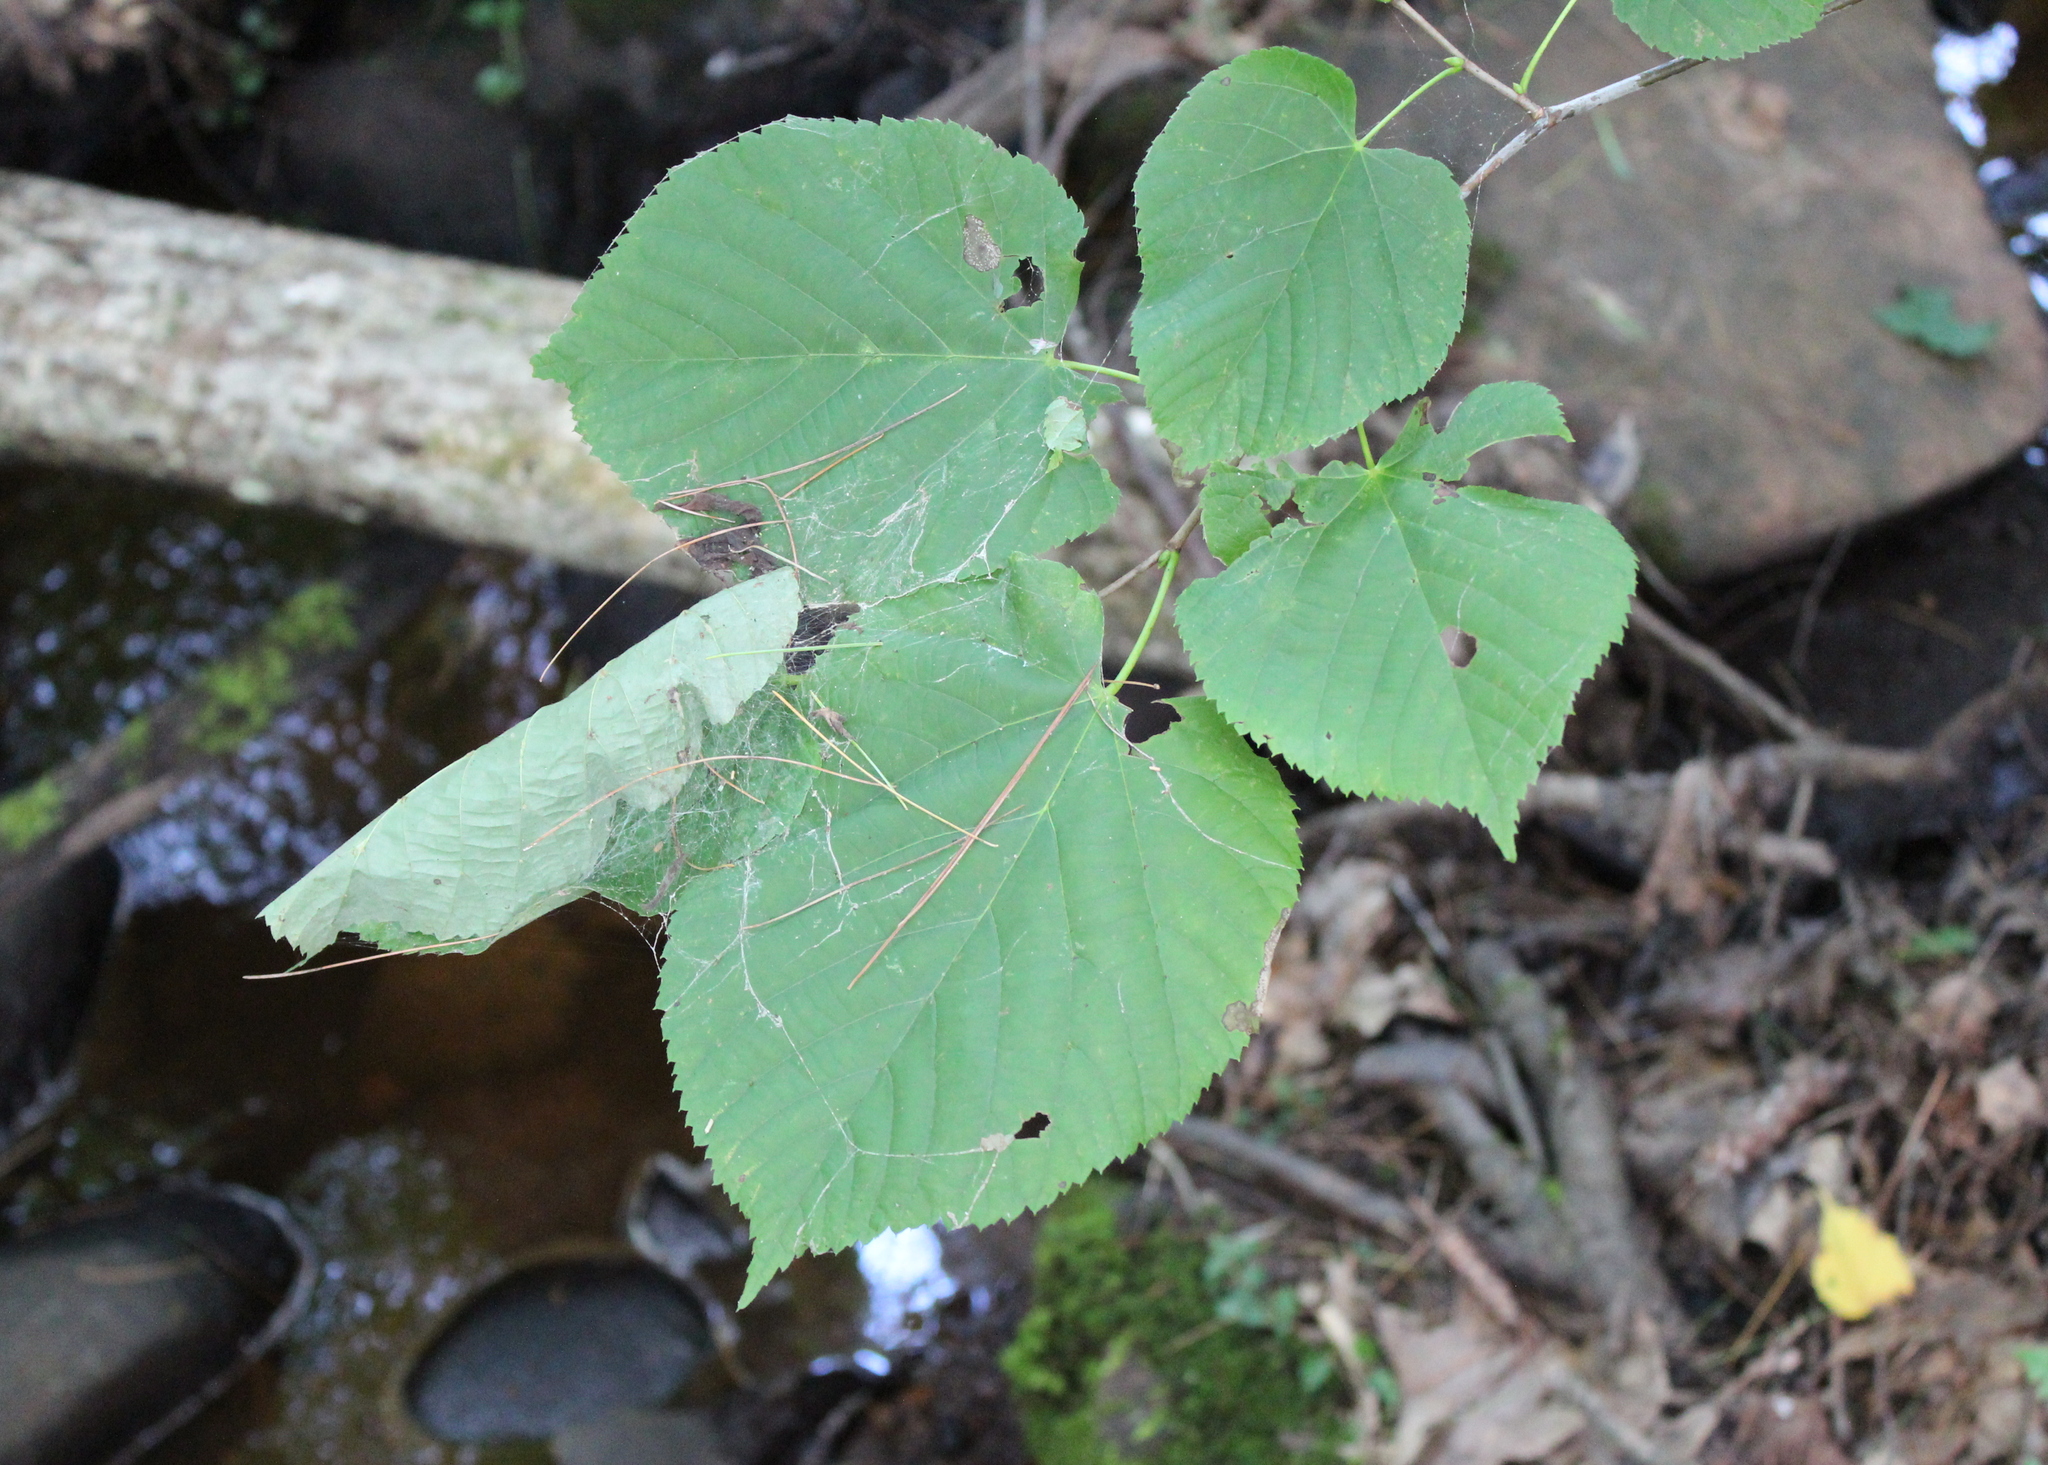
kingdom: Plantae
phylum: Tracheophyta
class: Magnoliopsida
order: Malvales
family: Malvaceae
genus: Tilia
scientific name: Tilia americana
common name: Basswood
